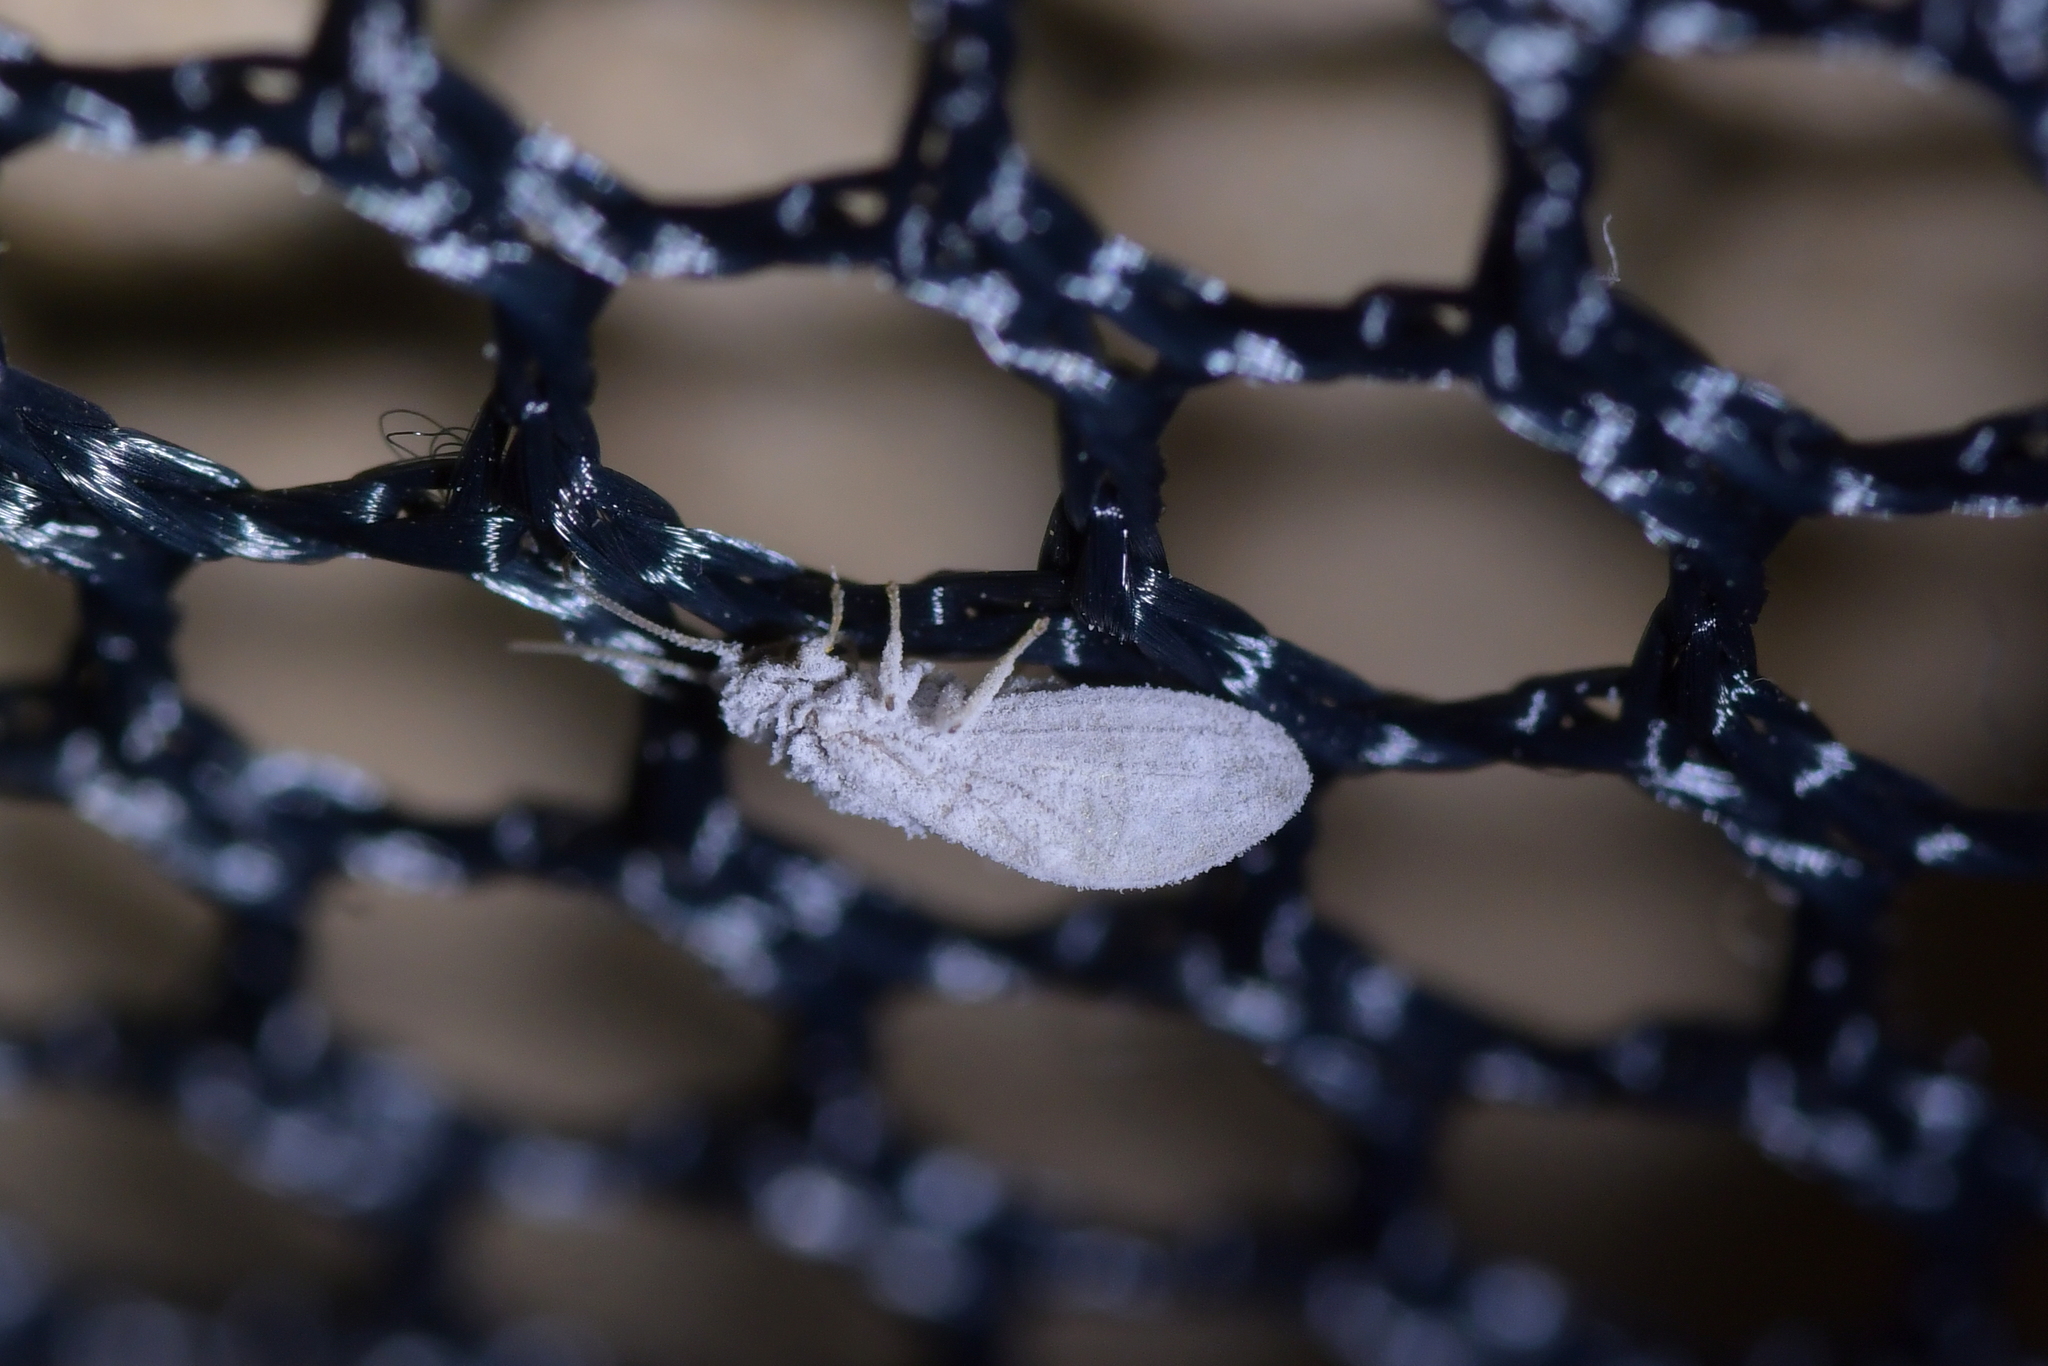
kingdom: Animalia
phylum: Arthropoda
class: Insecta
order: Neuroptera
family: Coniopterygidae
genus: Cryptoscenea
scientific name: Cryptoscenea australiensis
